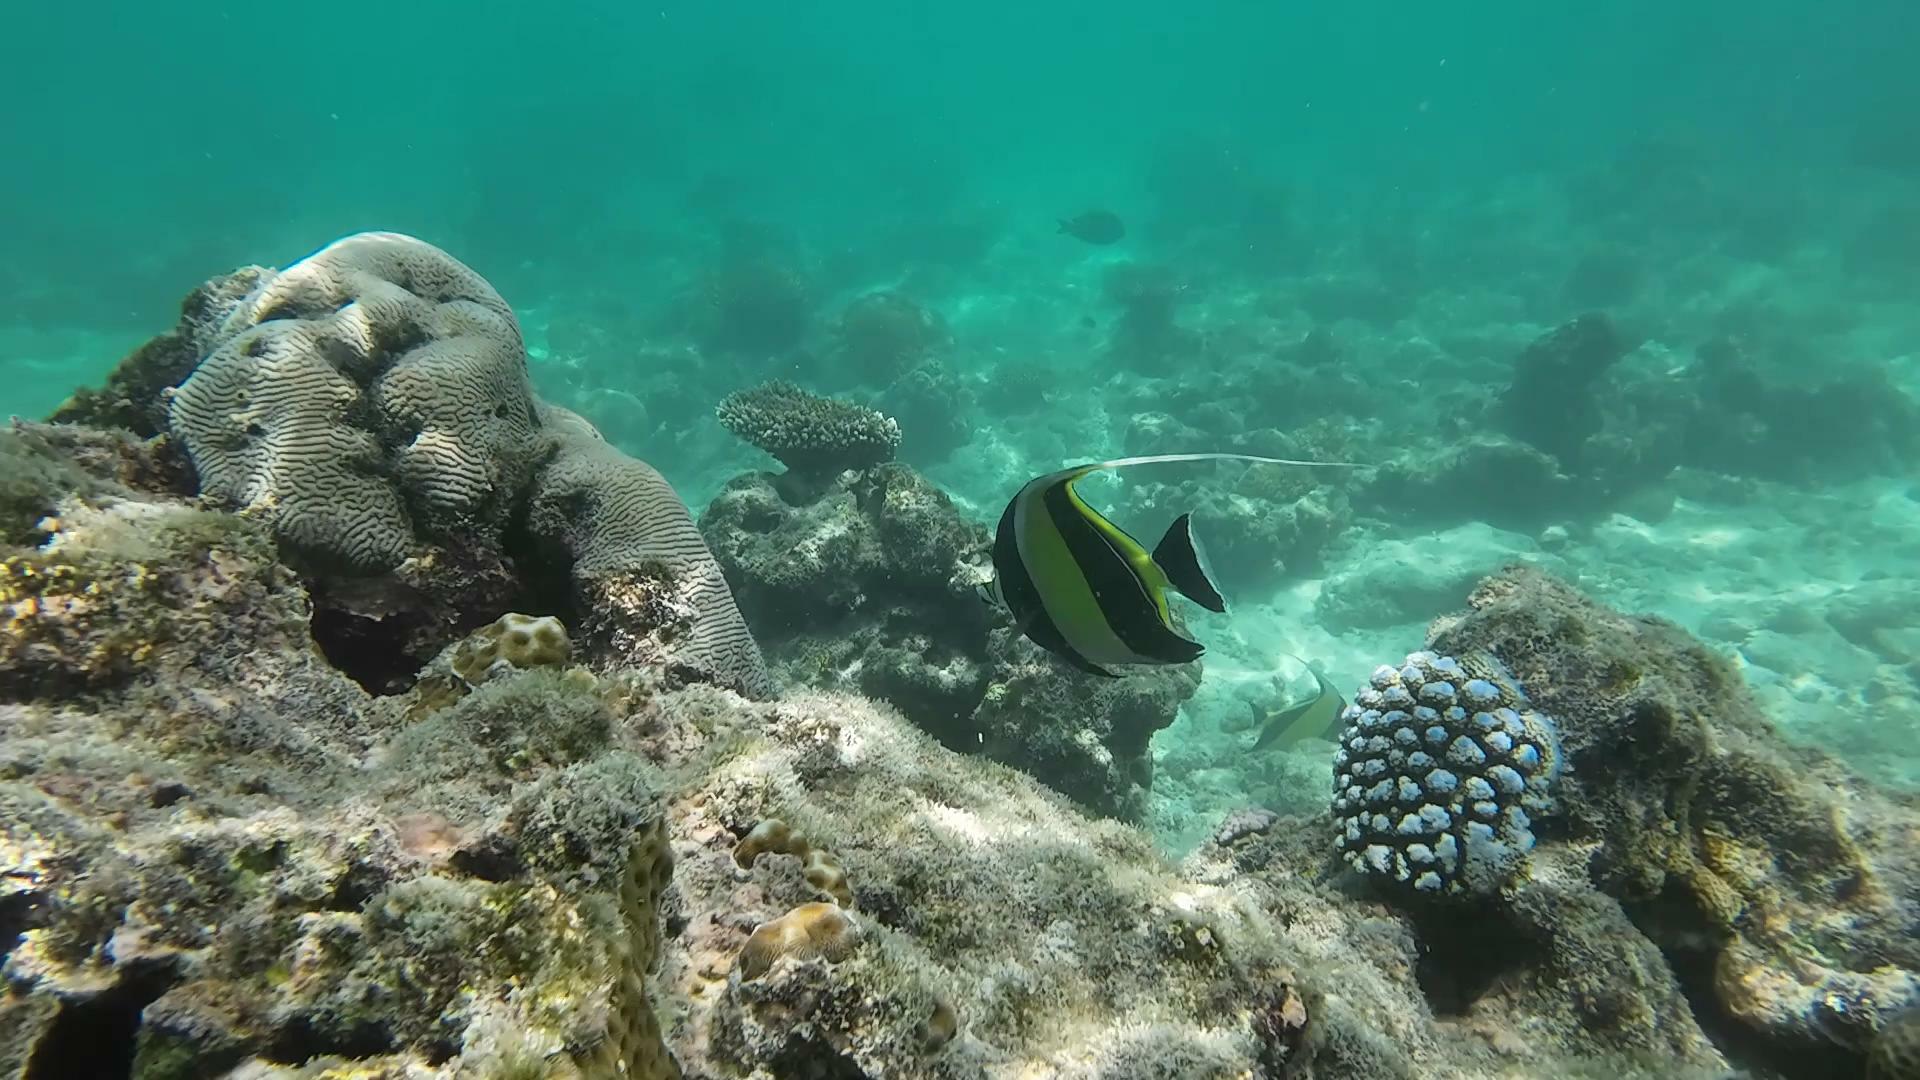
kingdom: Animalia
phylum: Chordata
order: Perciformes
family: Zanclidae
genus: Zanclus
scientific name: Zanclus cornutus
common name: Moorish idol
